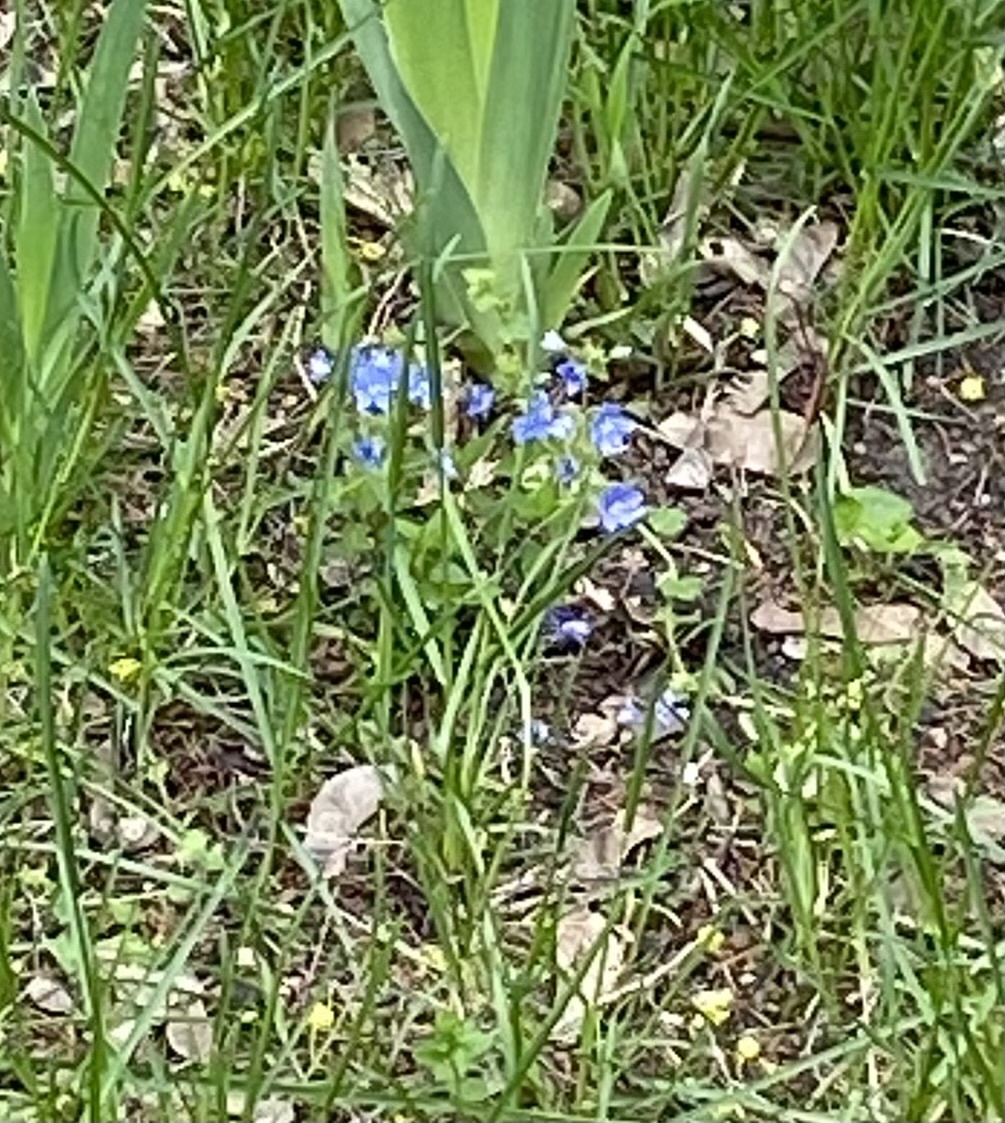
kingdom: Plantae
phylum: Tracheophyta
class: Magnoliopsida
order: Lamiales
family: Plantaginaceae
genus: Veronica
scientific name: Veronica
